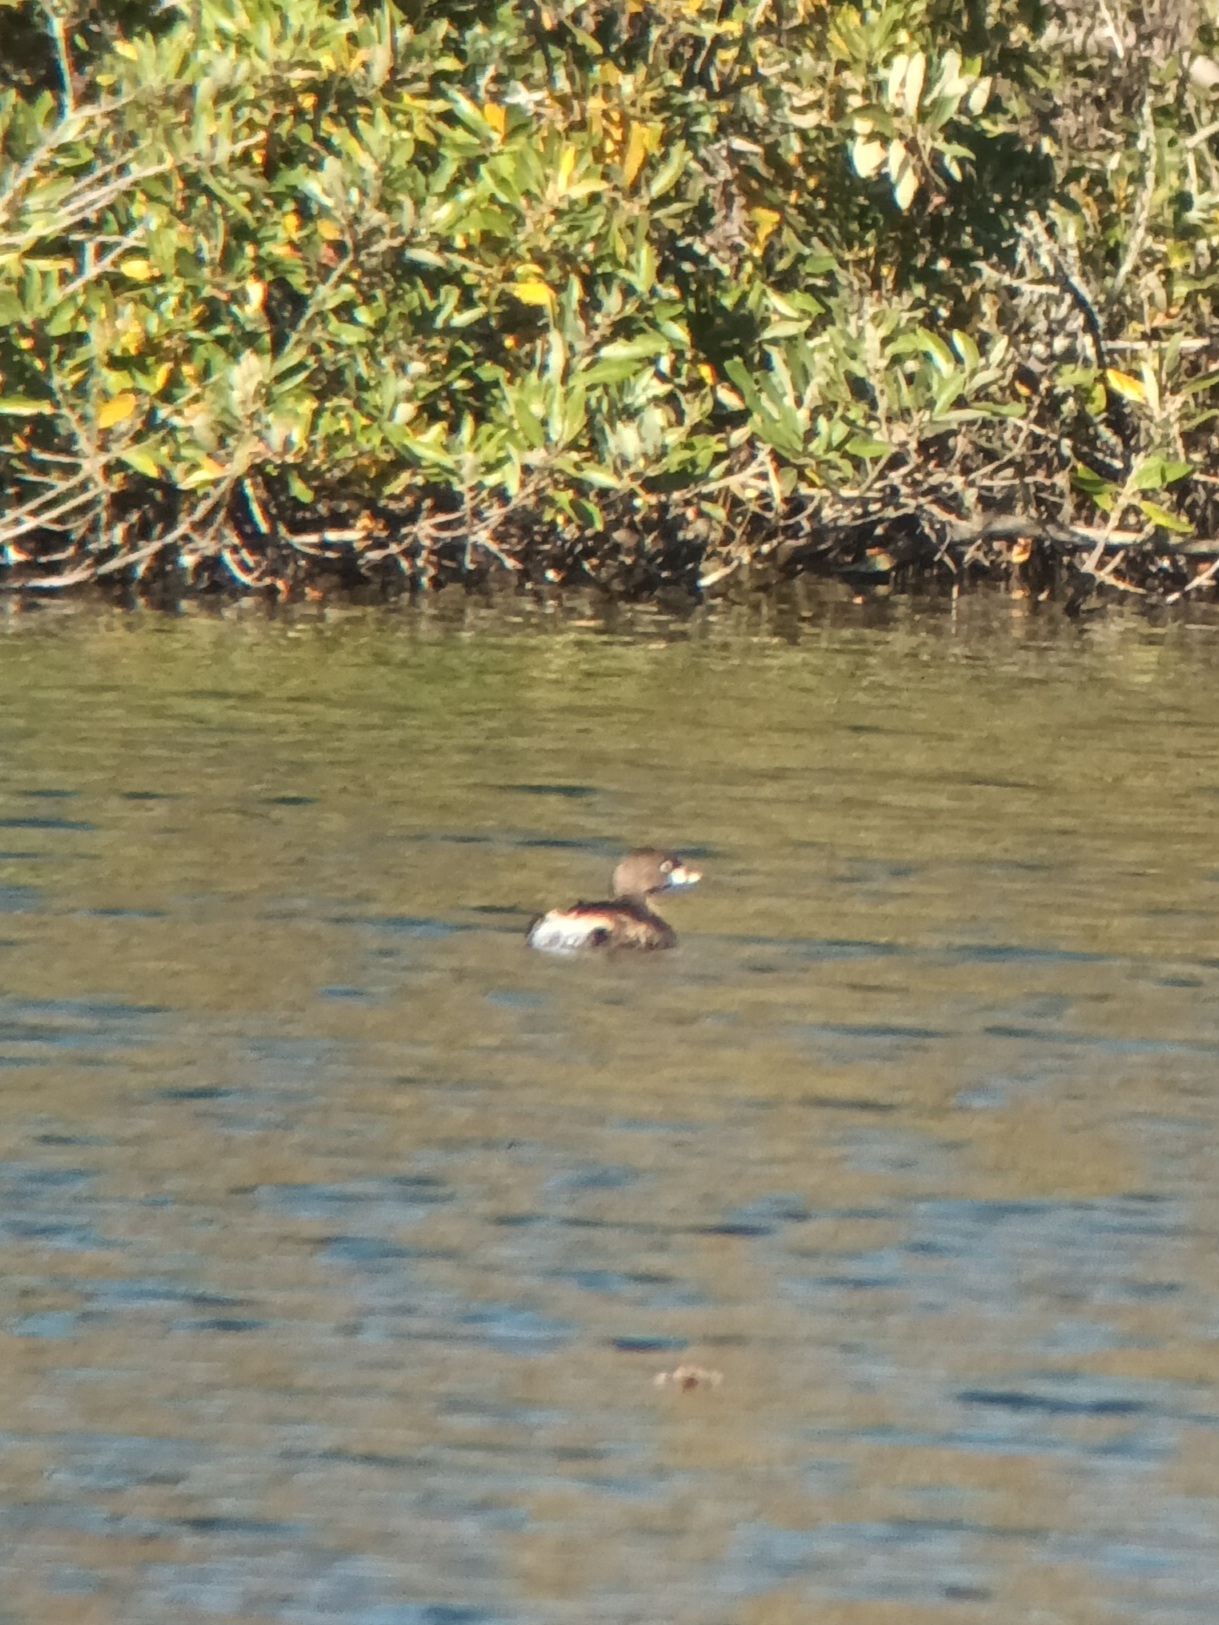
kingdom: Animalia
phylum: Chordata
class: Aves
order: Podicipediformes
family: Podicipedidae
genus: Podilymbus
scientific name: Podilymbus podiceps
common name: Pied-billed grebe
